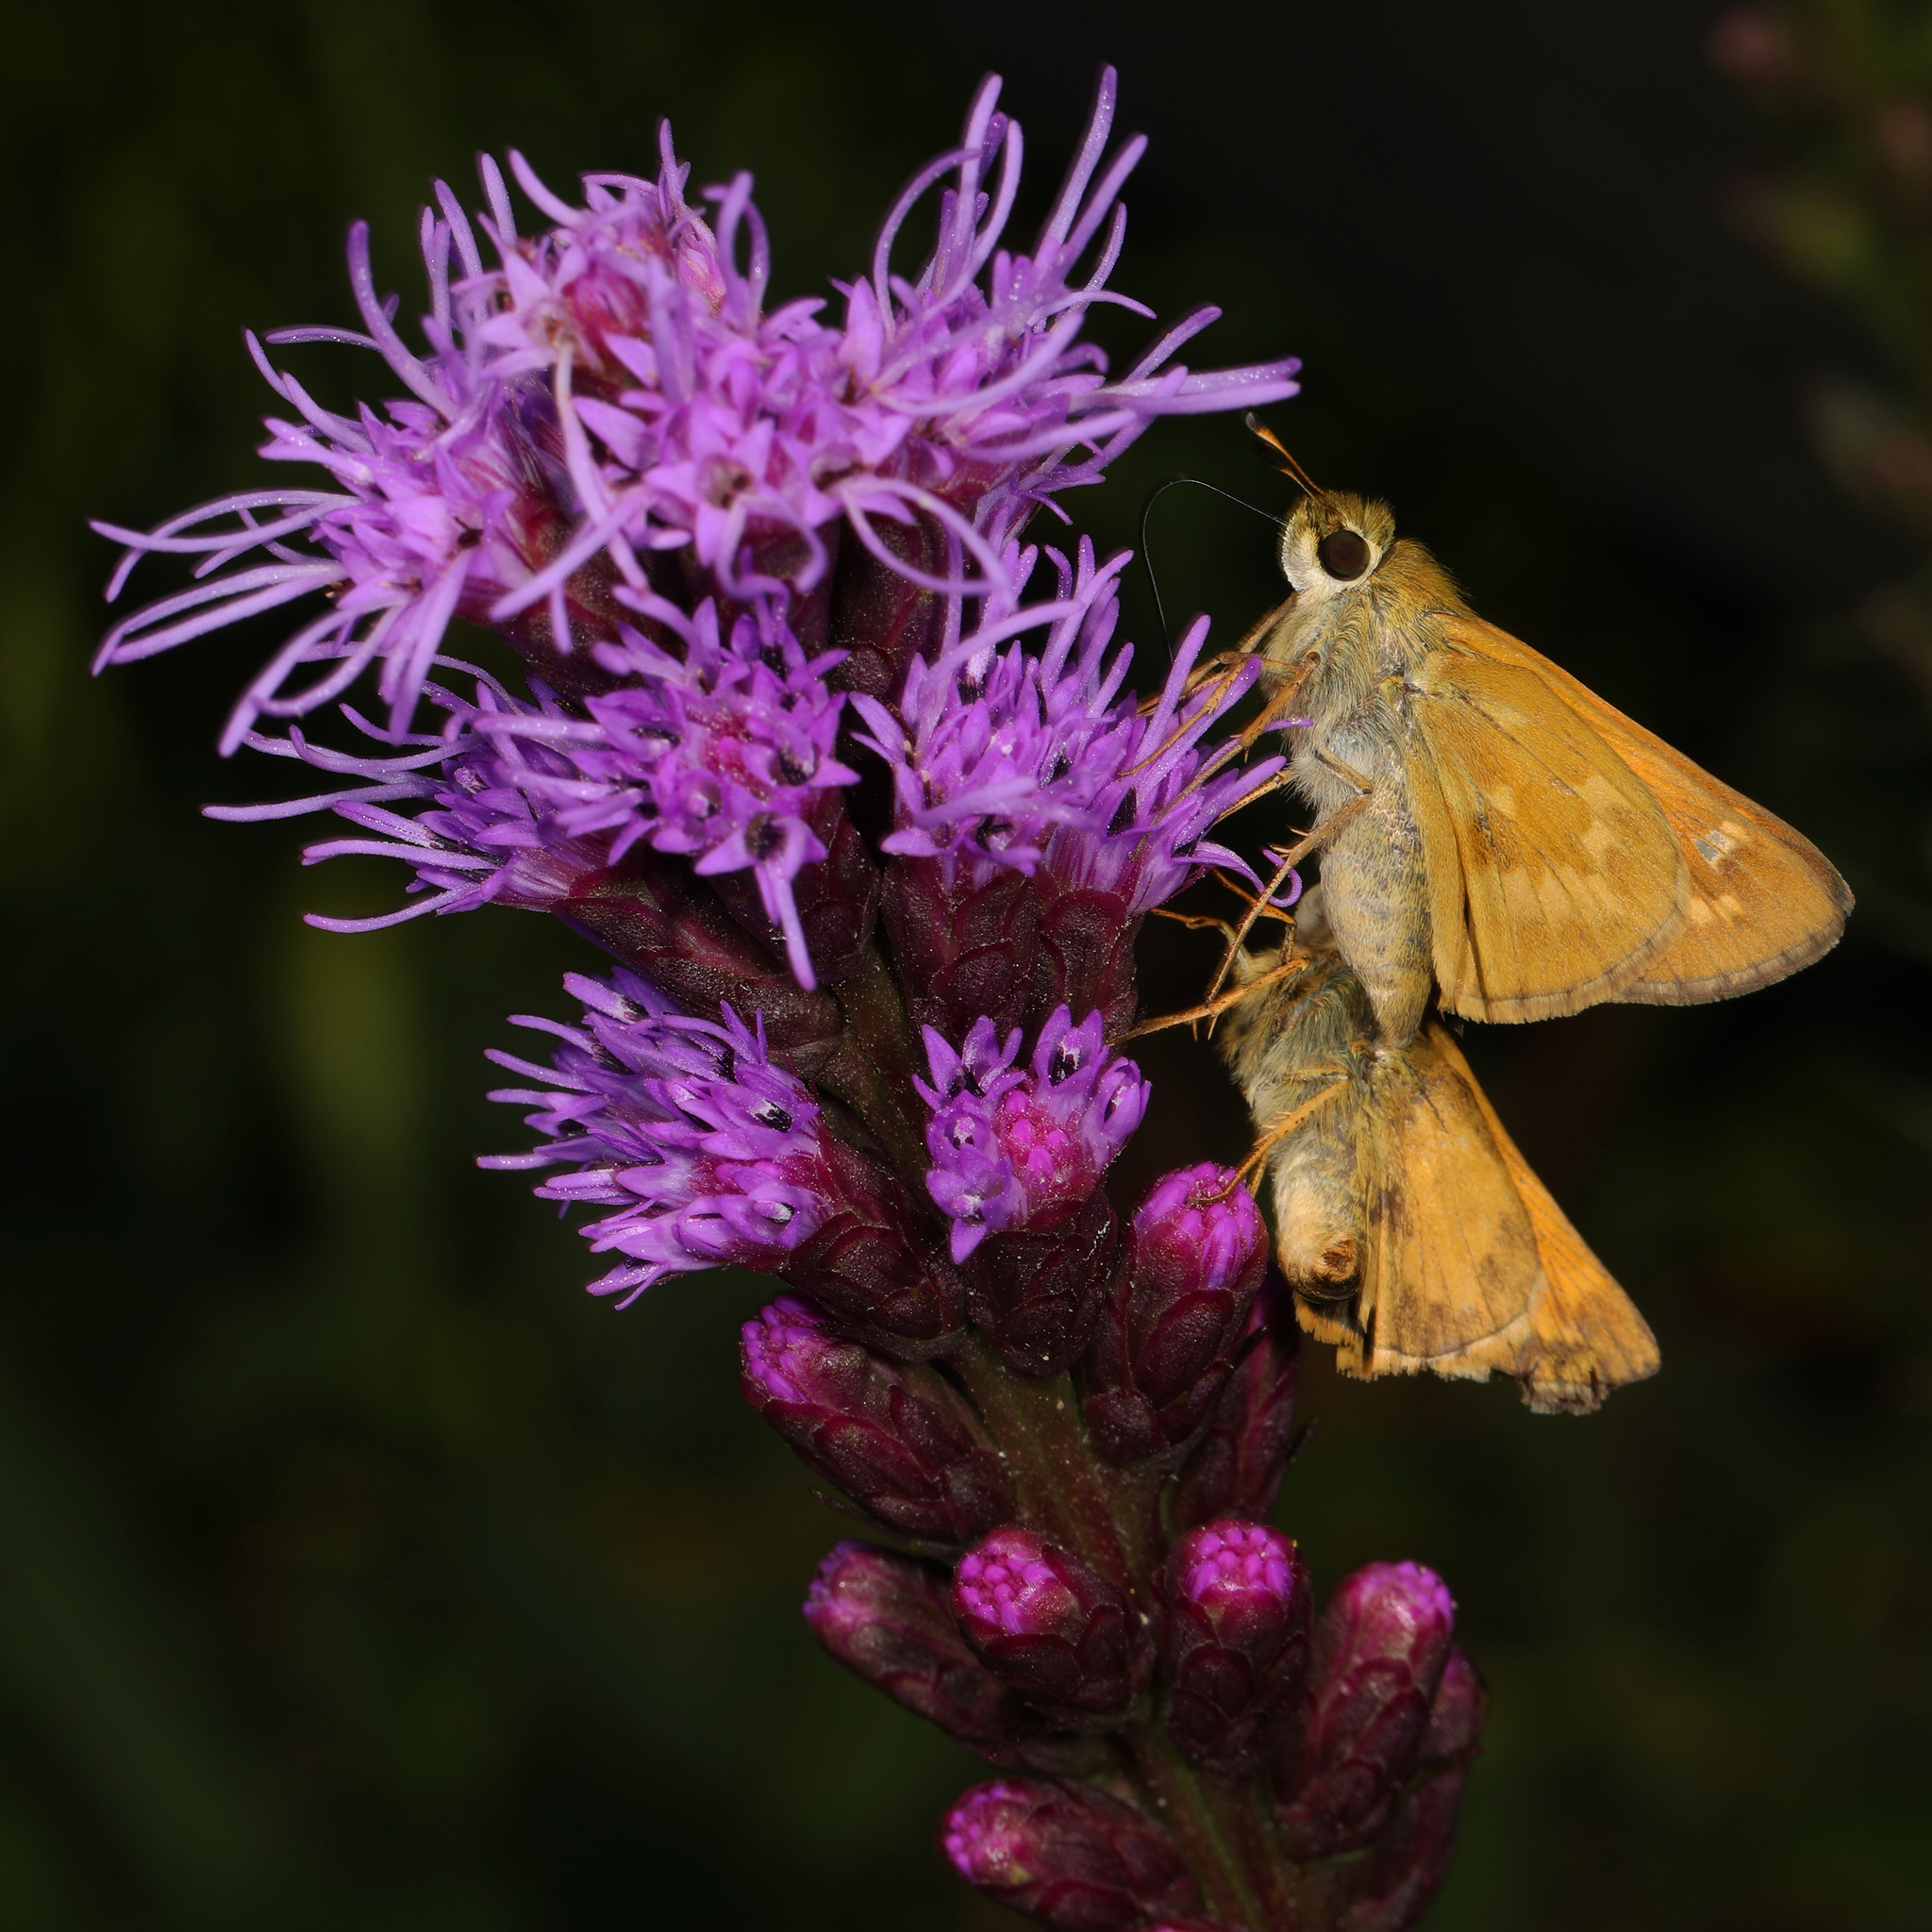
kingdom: Animalia
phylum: Arthropoda
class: Insecta
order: Lepidoptera
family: Hesperiidae
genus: Atalopedes
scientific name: Atalopedes
